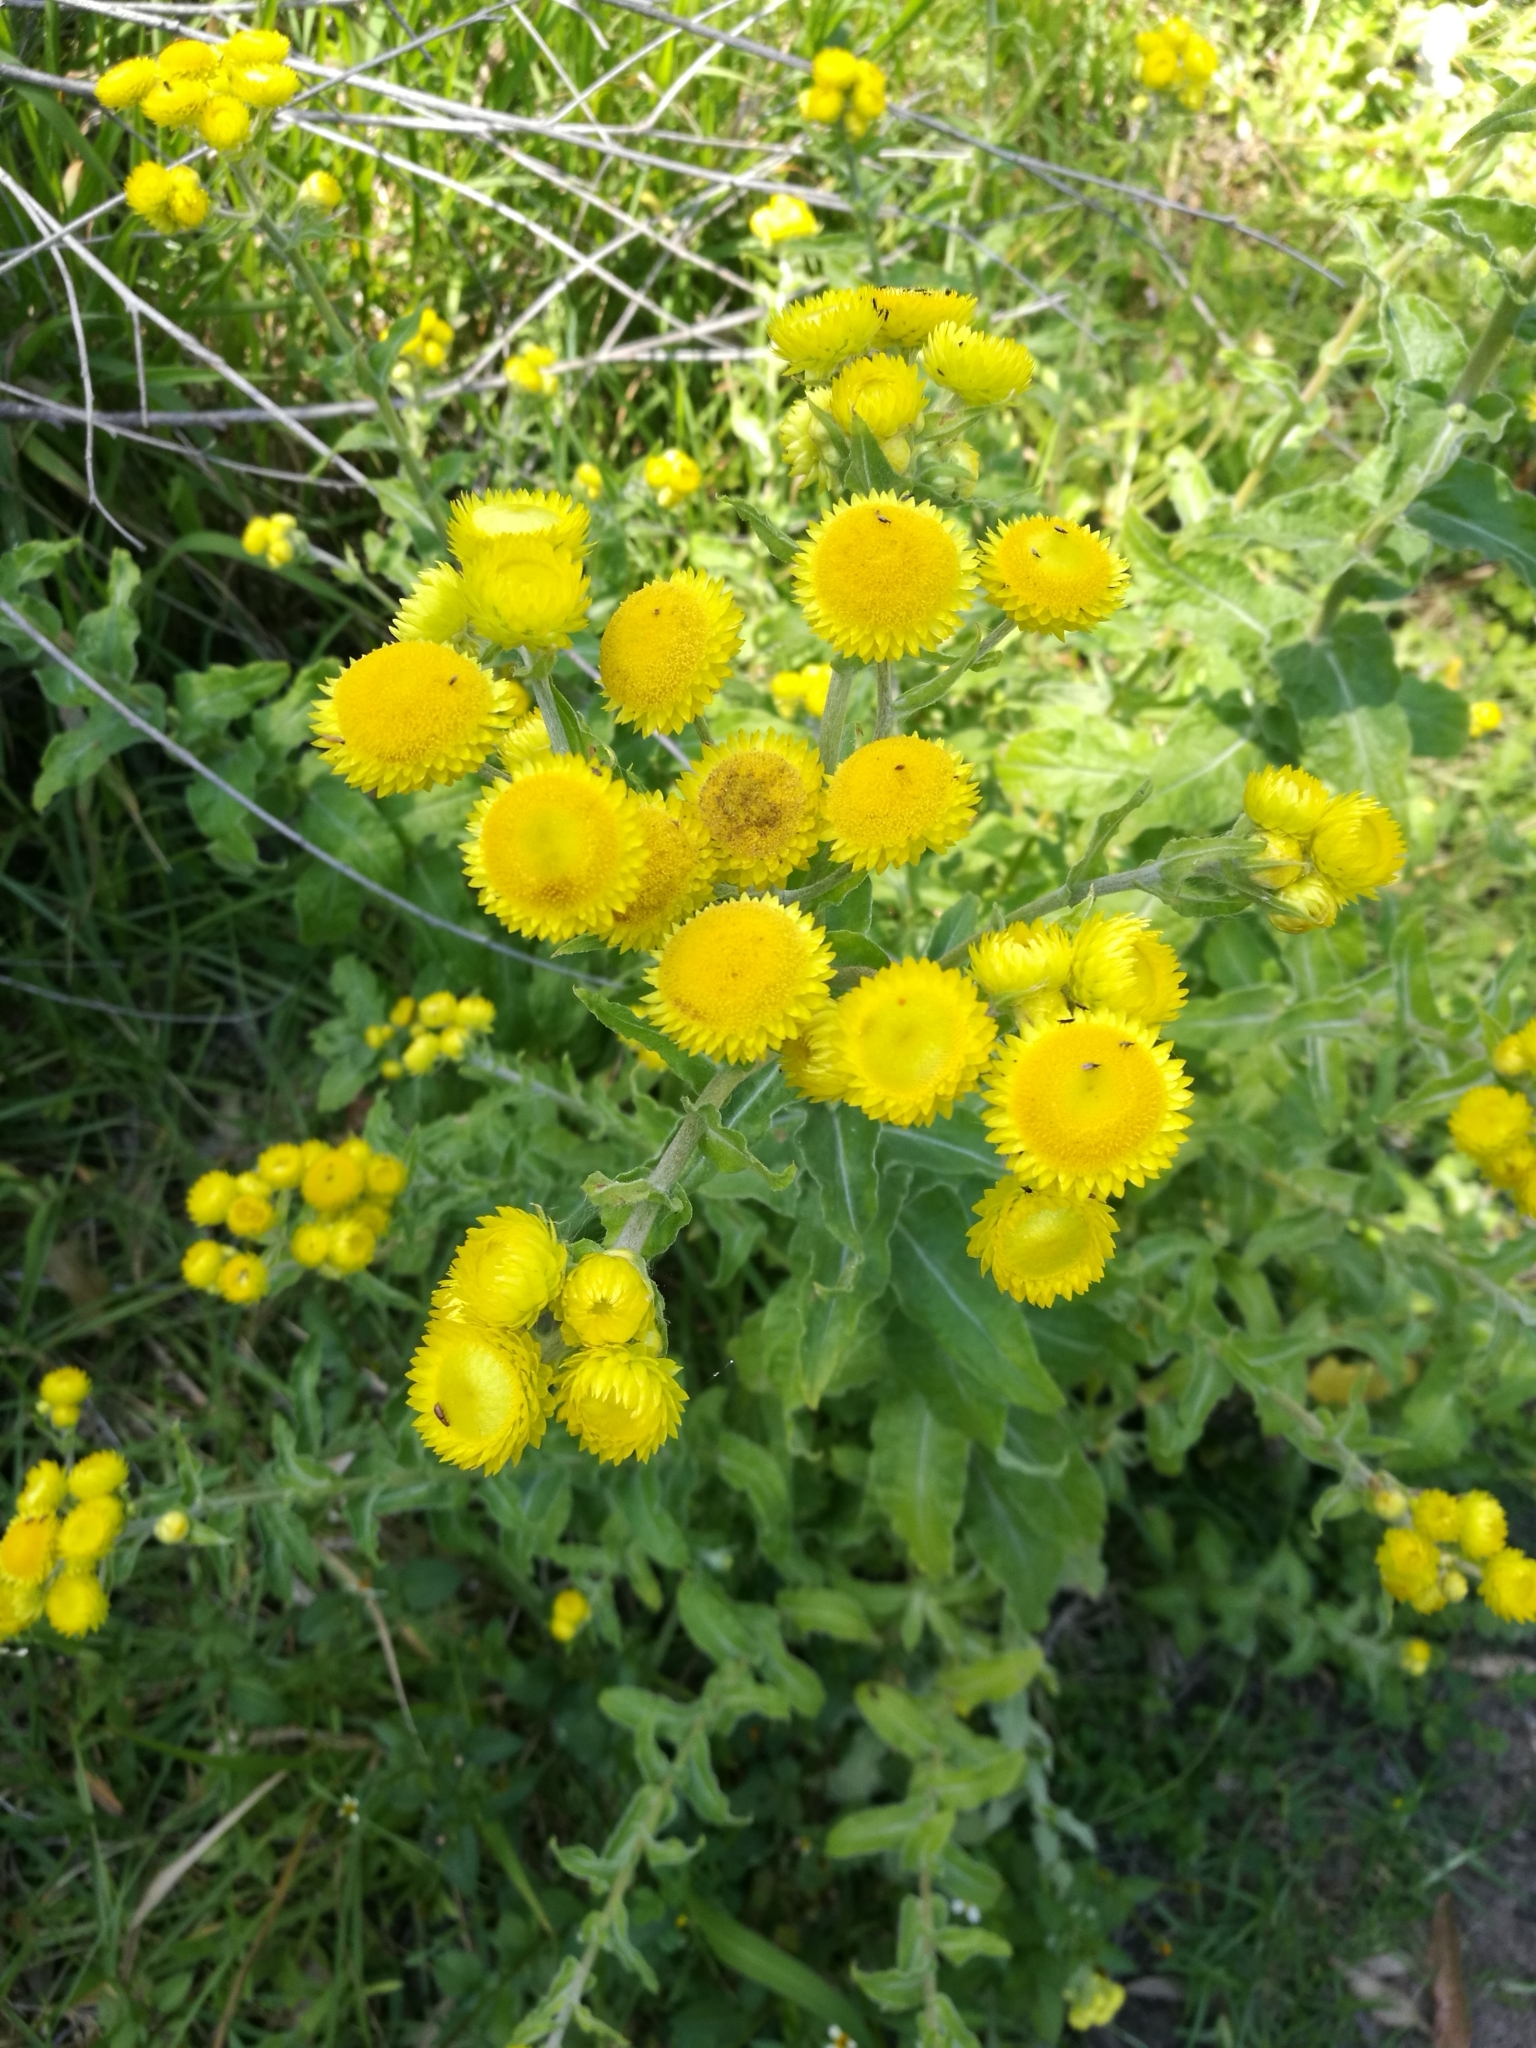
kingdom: Plantae
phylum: Tracheophyta
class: Magnoliopsida
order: Asterales
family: Asteraceae
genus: Helichrysum
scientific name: Helichrysum foetidum
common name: Stinking everlasting
